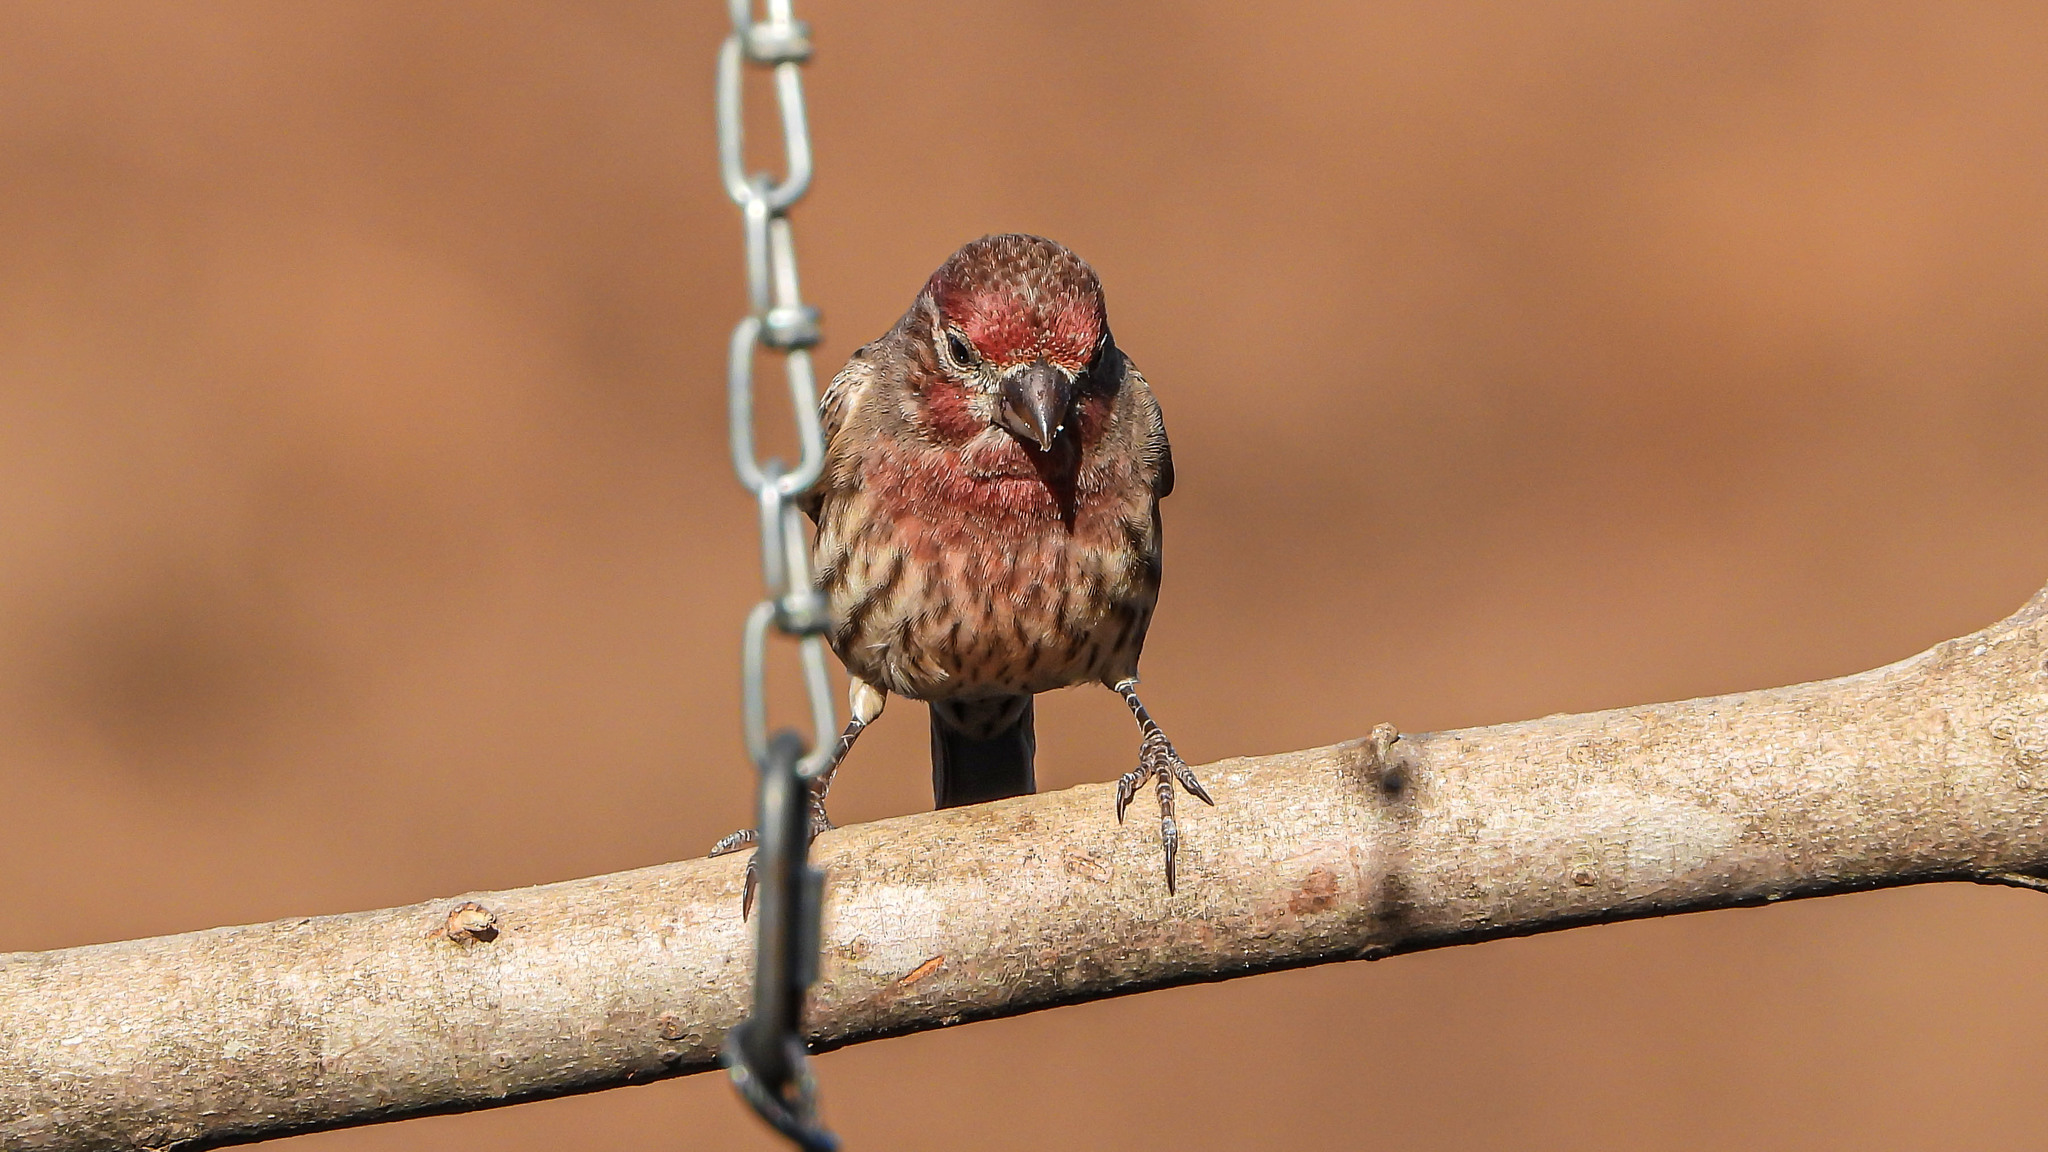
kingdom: Animalia
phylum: Chordata
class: Aves
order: Passeriformes
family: Fringillidae
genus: Haemorhous
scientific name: Haemorhous mexicanus
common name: House finch
